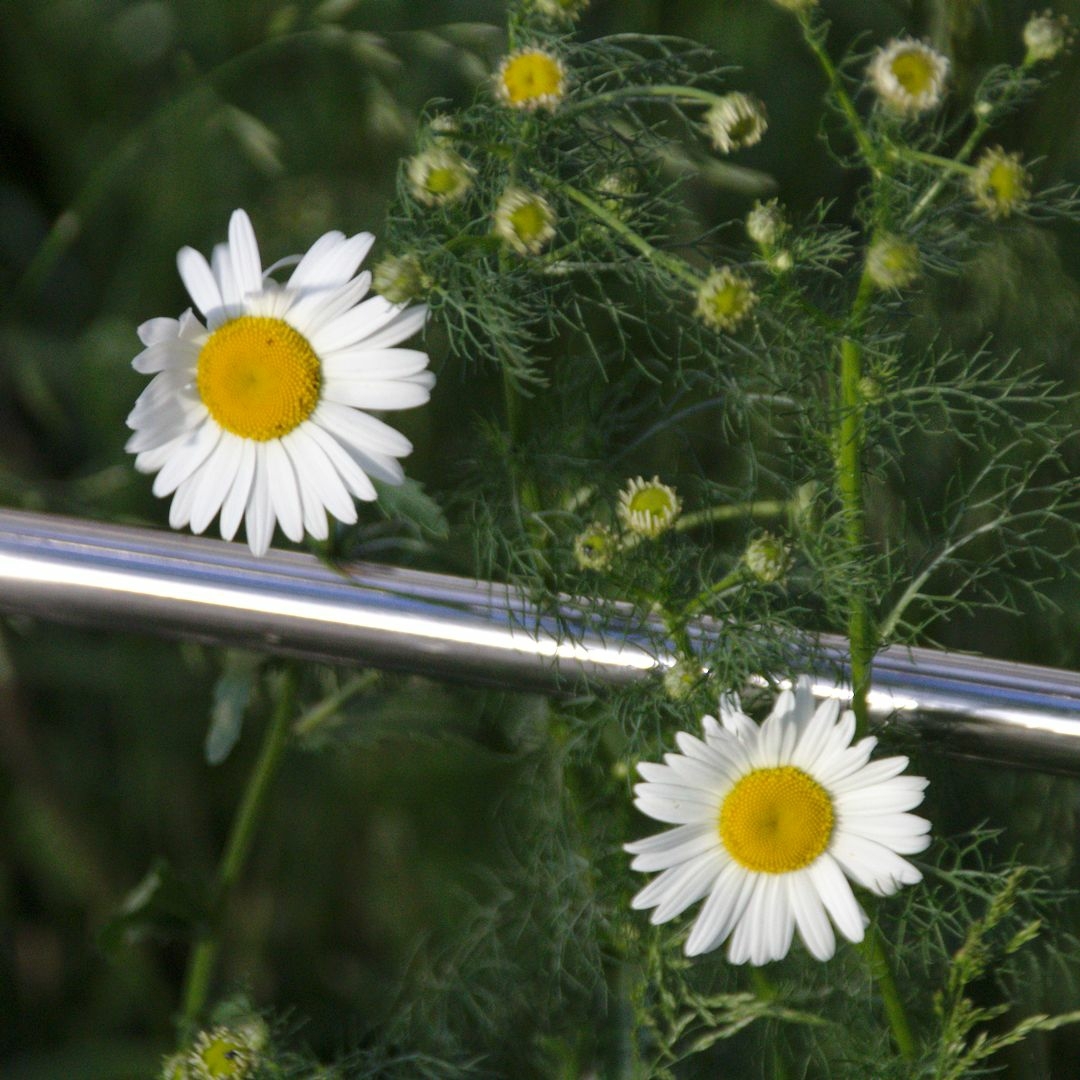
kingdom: Plantae
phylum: Tracheophyta
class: Magnoliopsida
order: Asterales
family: Asteraceae
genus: Tripleurospermum
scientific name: Tripleurospermum inodorum
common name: Scentless mayweed
